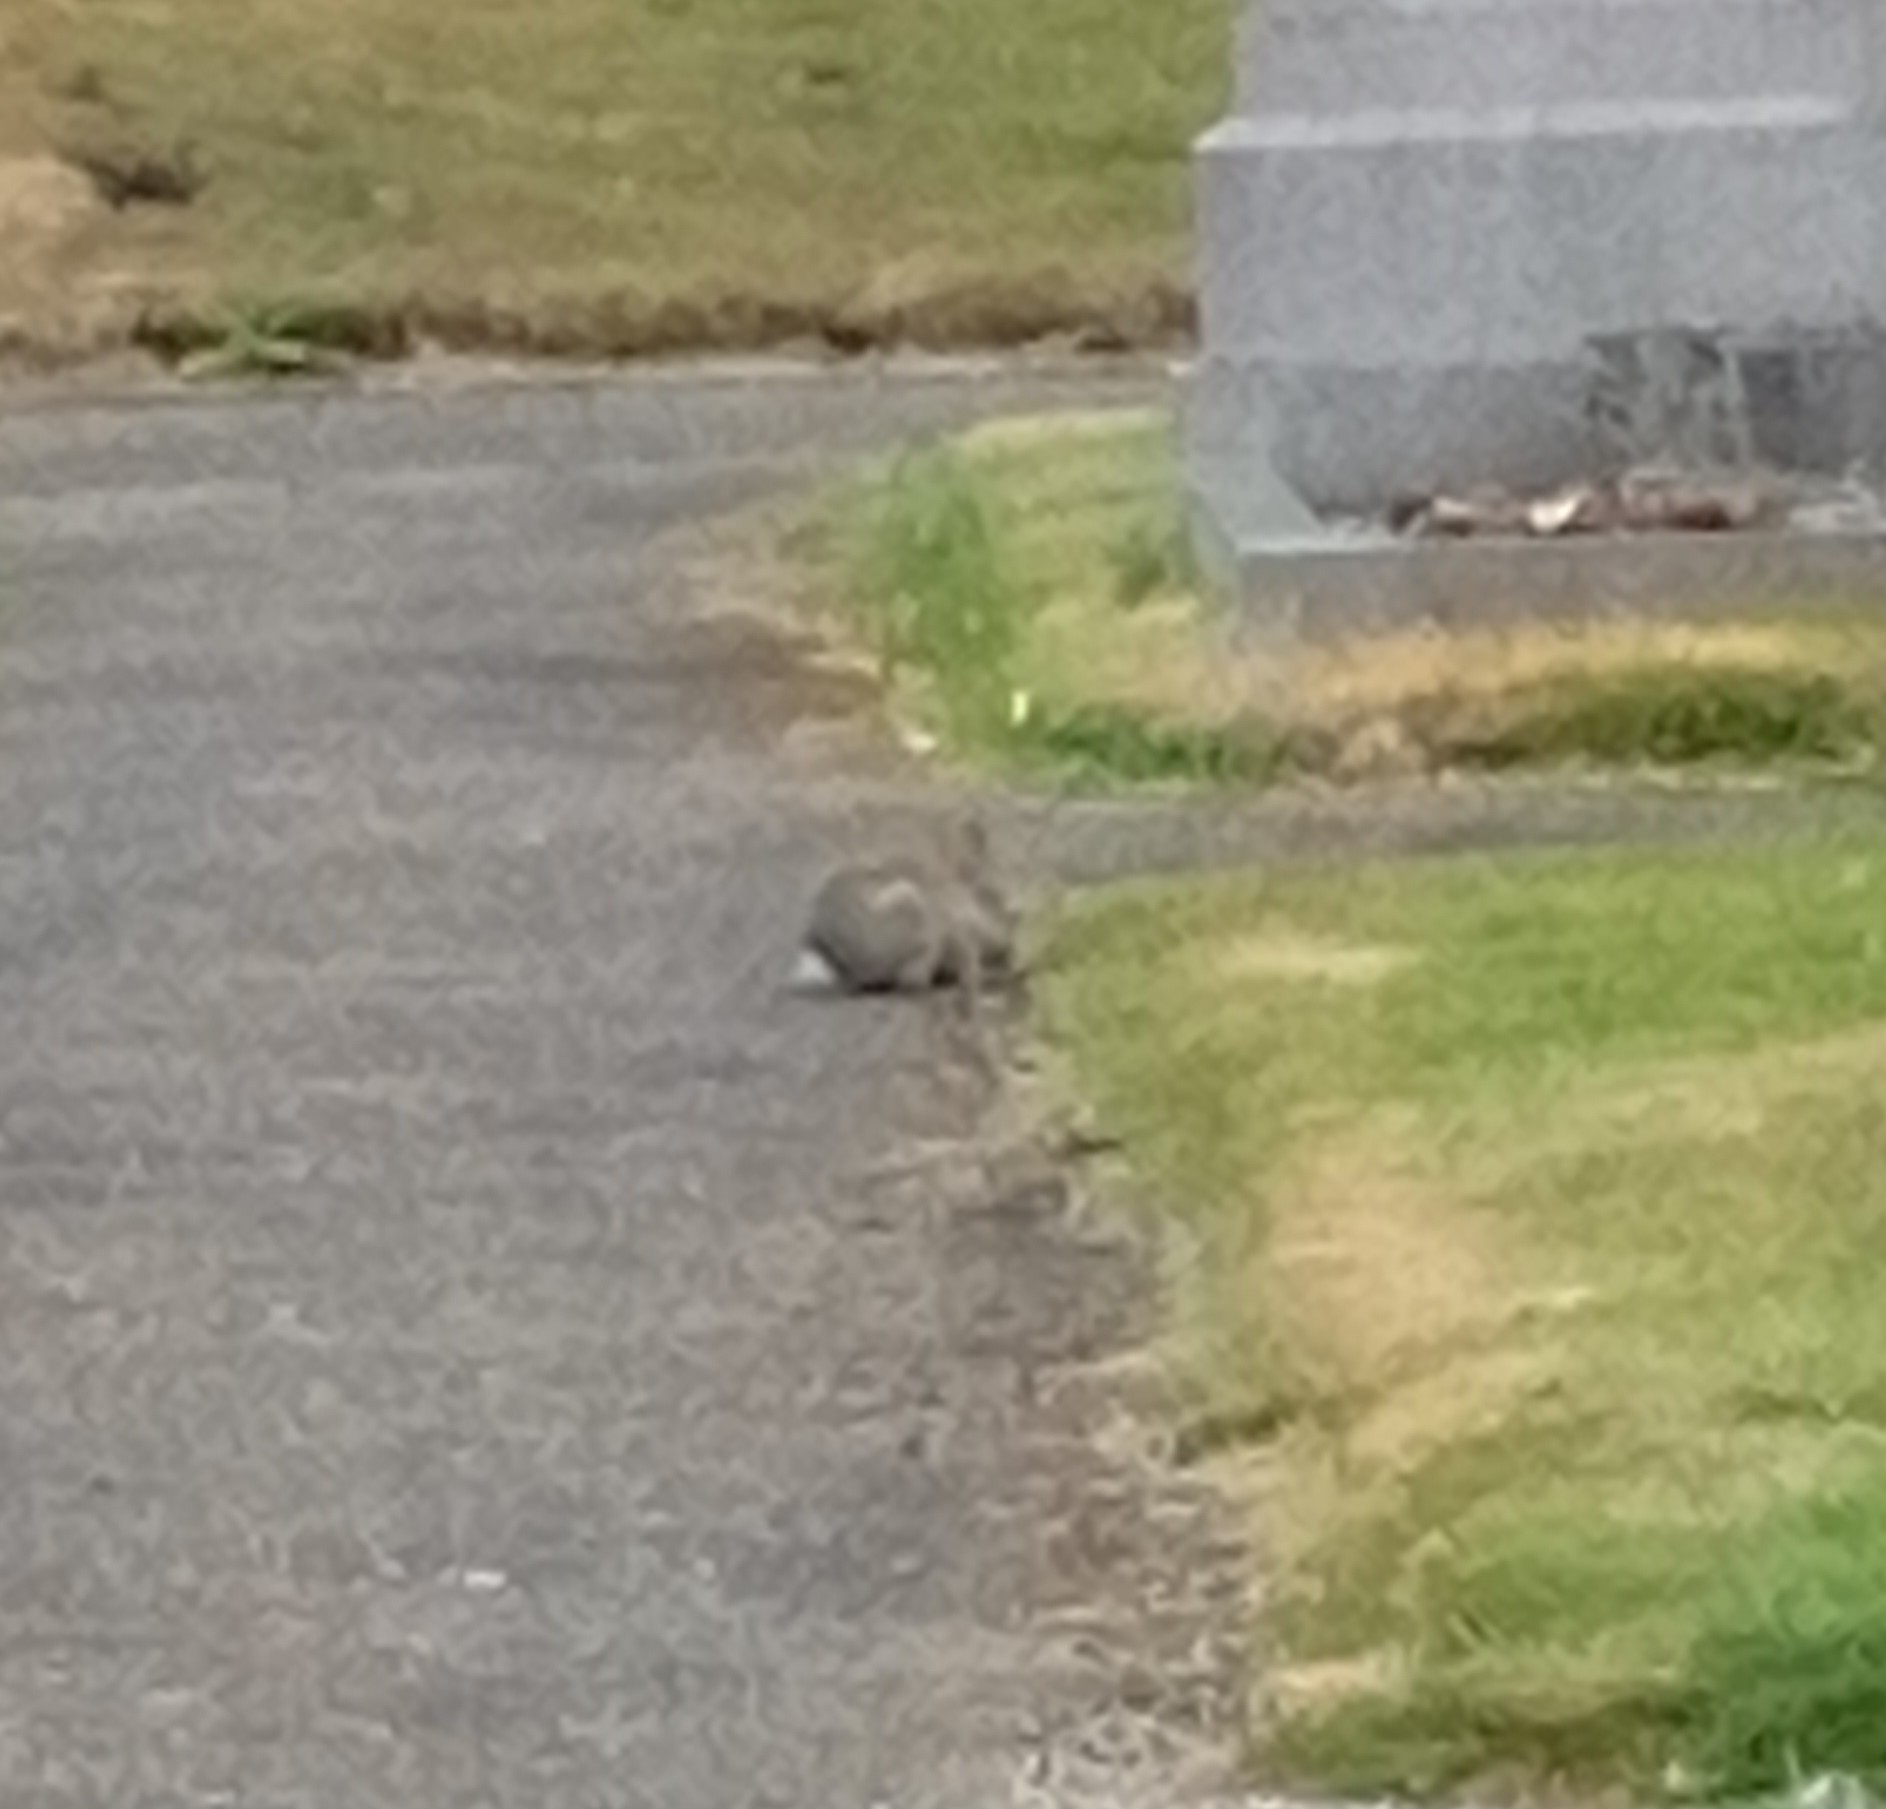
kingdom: Animalia
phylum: Chordata
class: Mammalia
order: Lagomorpha
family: Leporidae
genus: Oryctolagus
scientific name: Oryctolagus cuniculus
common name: European rabbit
